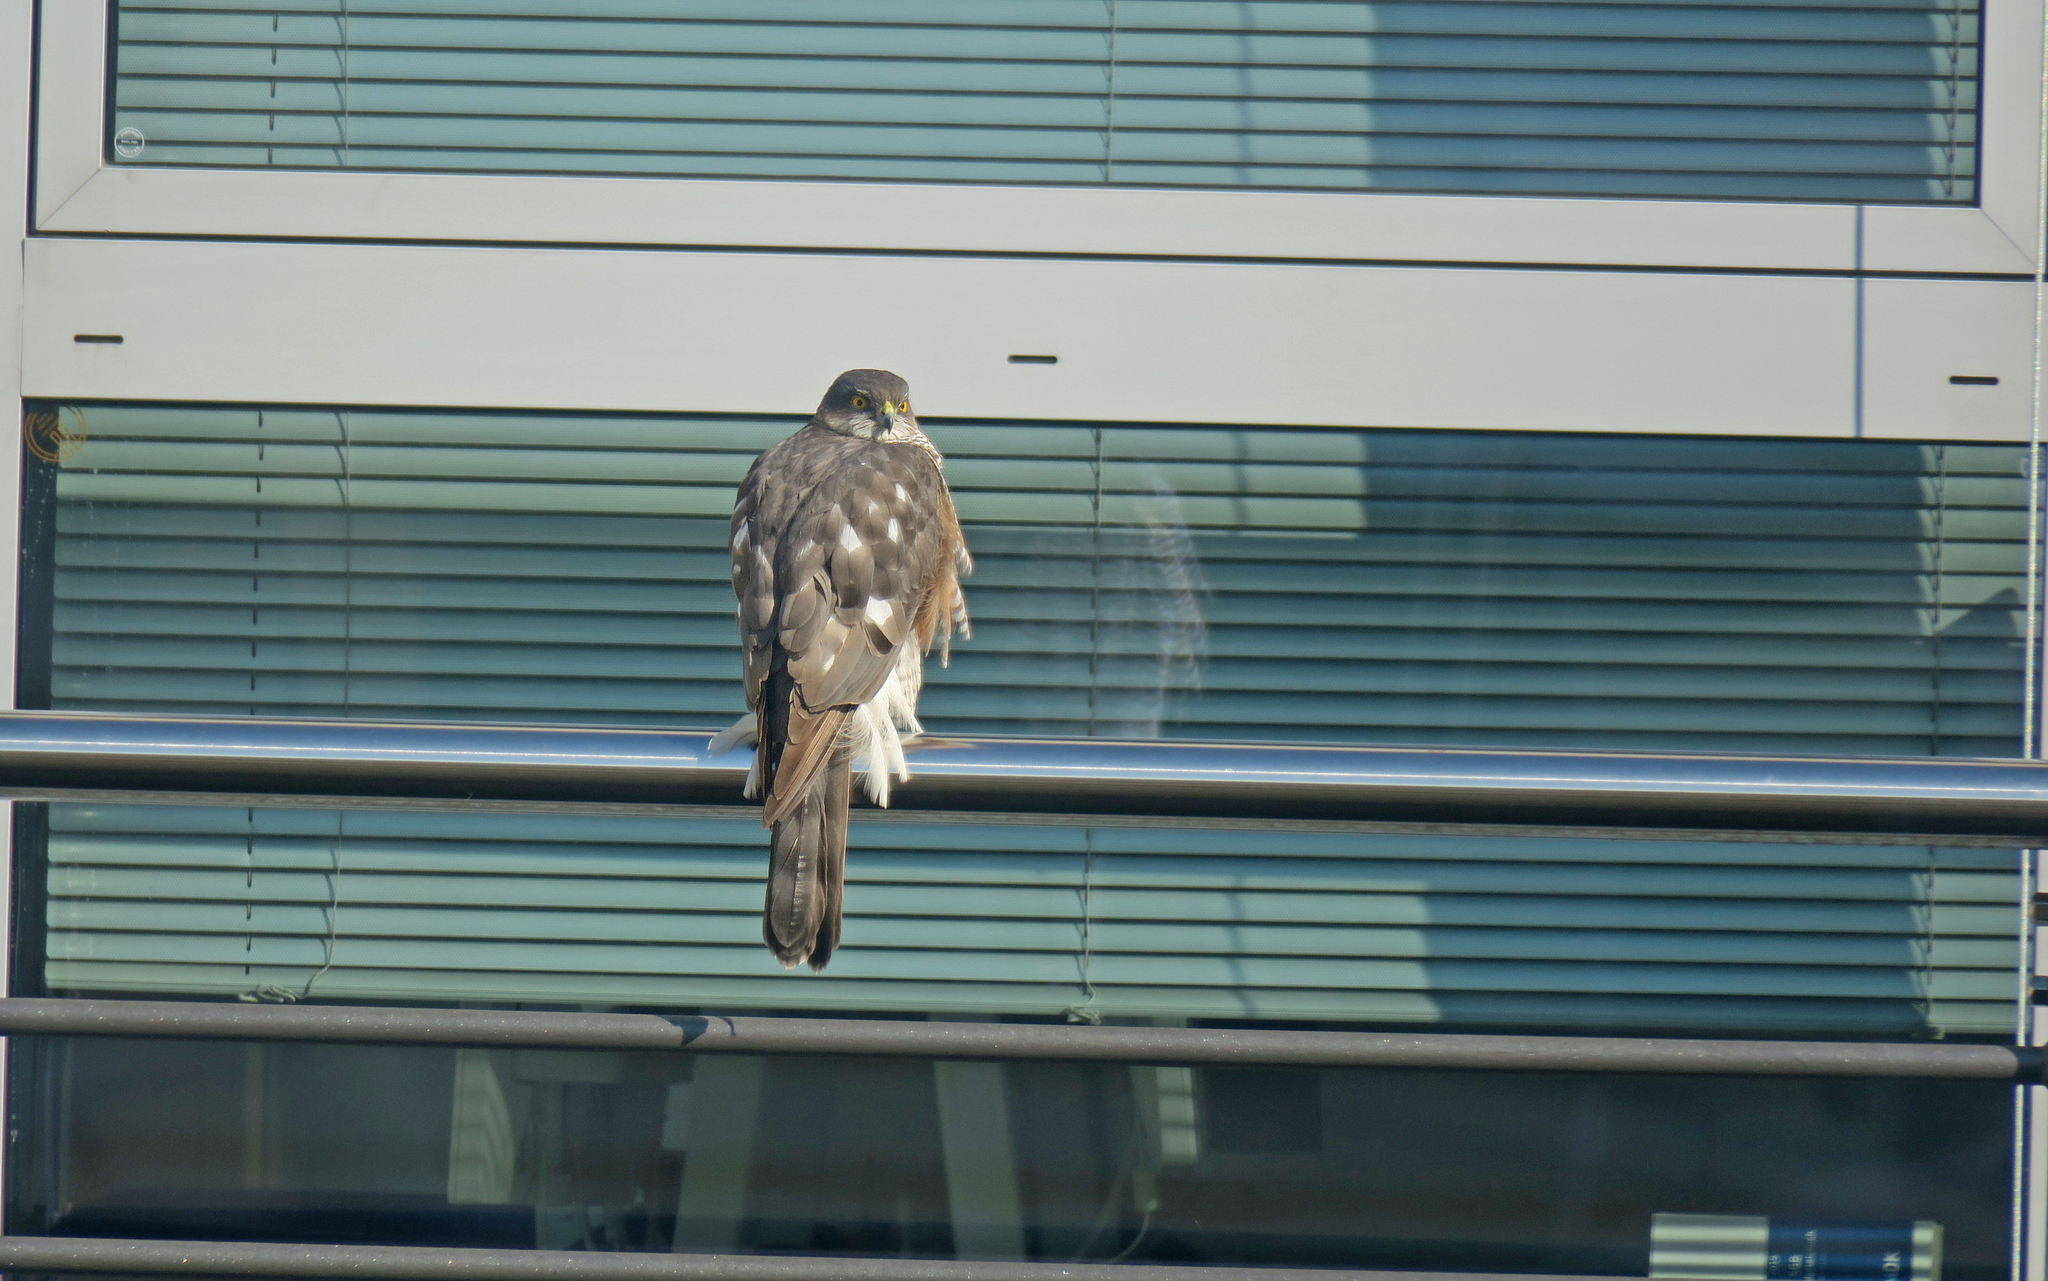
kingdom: Animalia
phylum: Chordata
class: Aves
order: Accipitriformes
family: Accipitridae
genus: Accipiter
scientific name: Accipiter nisus
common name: Eurasian sparrowhawk
